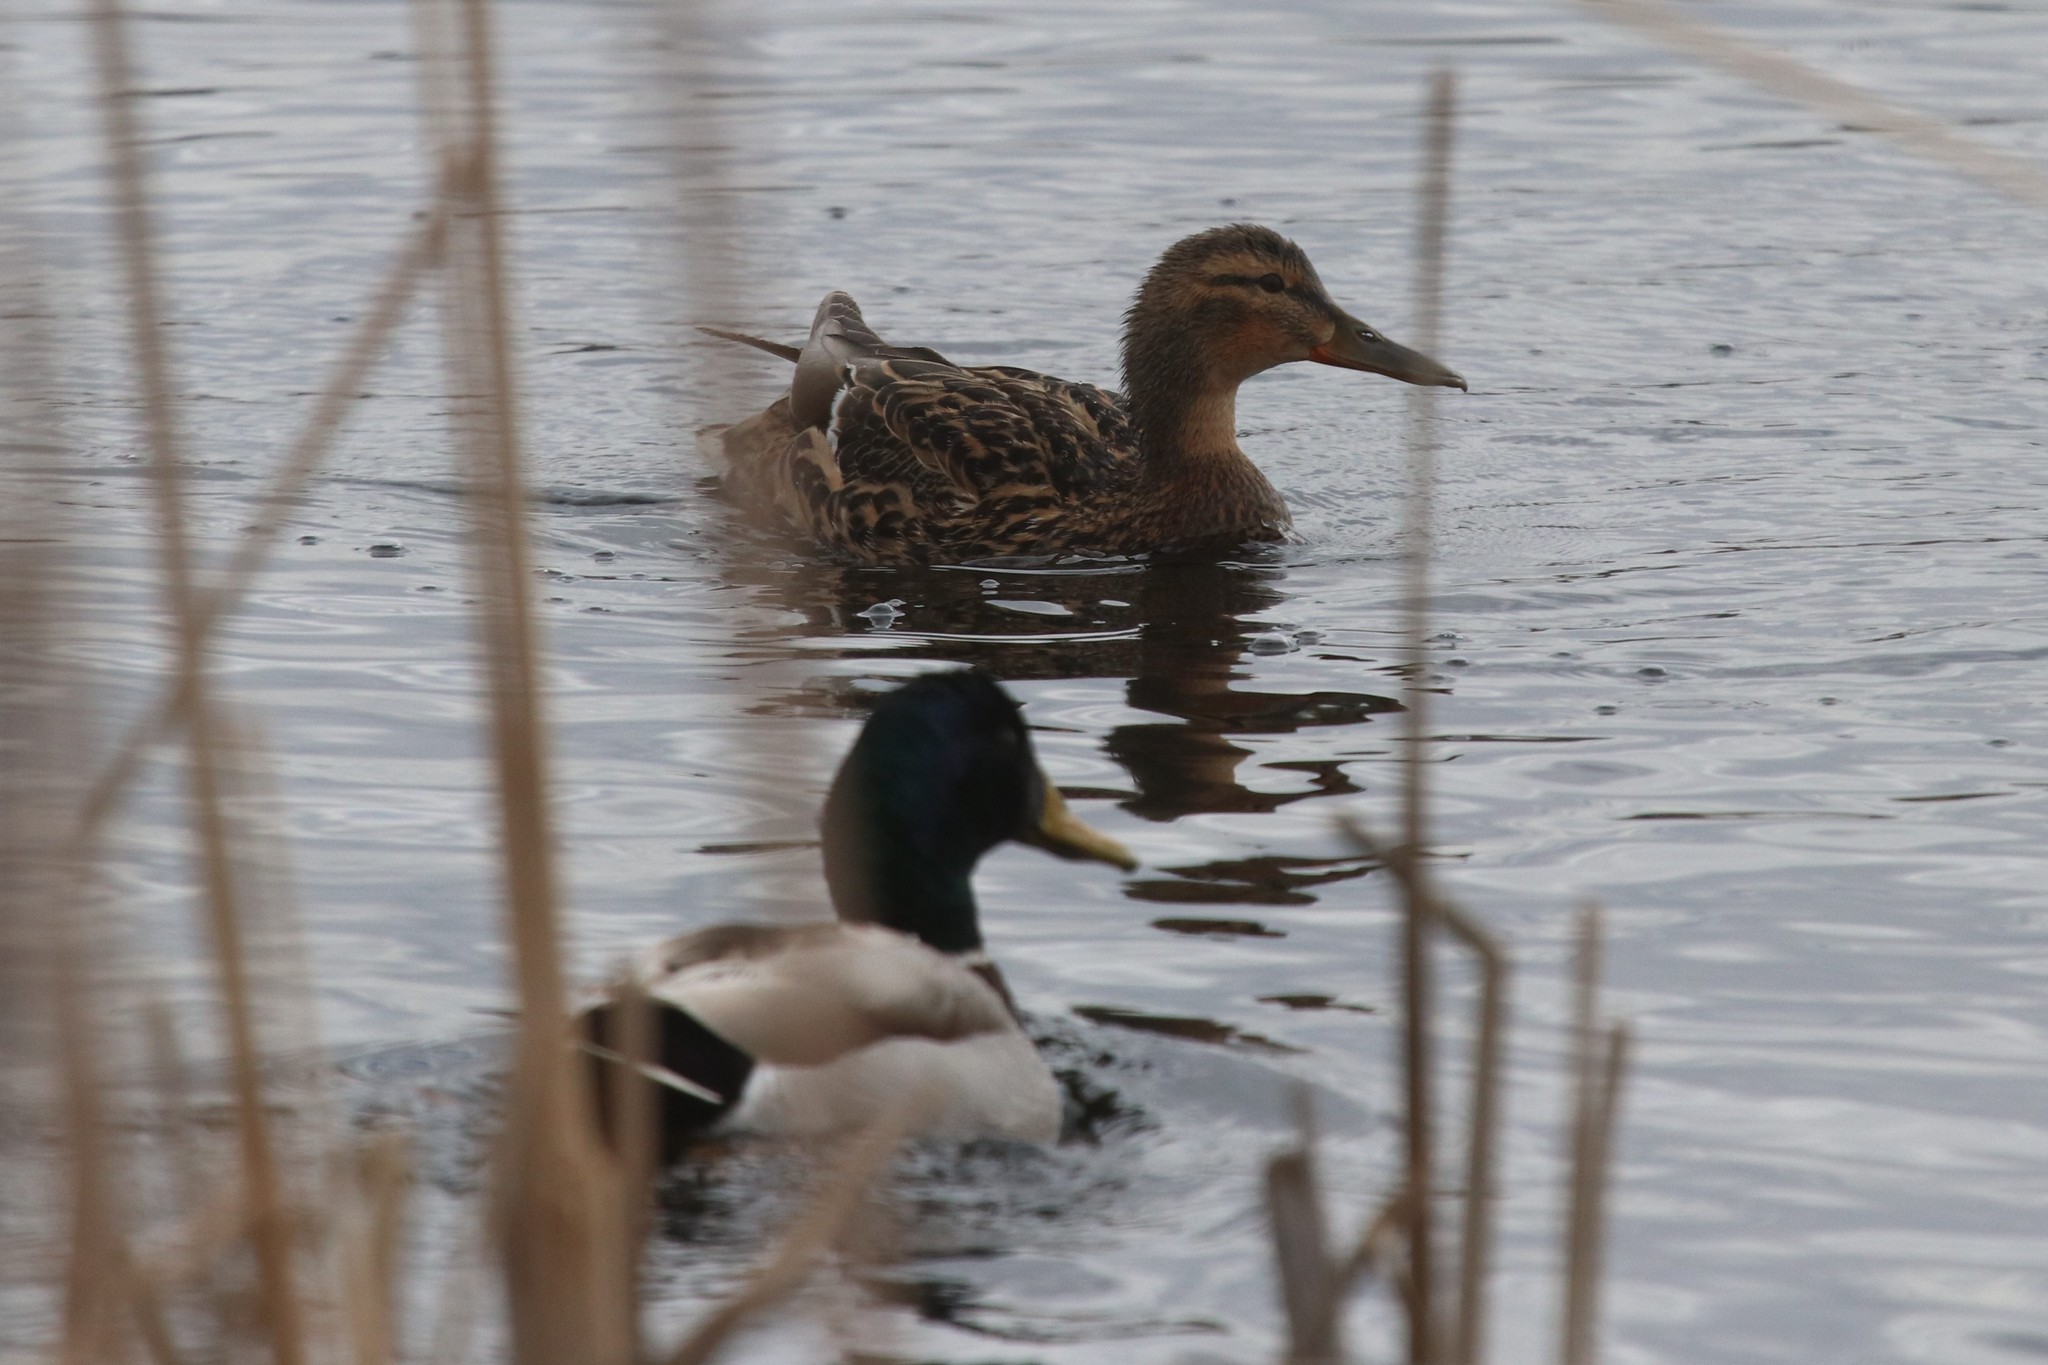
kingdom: Animalia
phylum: Chordata
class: Aves
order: Anseriformes
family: Anatidae
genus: Anas
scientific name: Anas platyrhynchos
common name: Mallard
